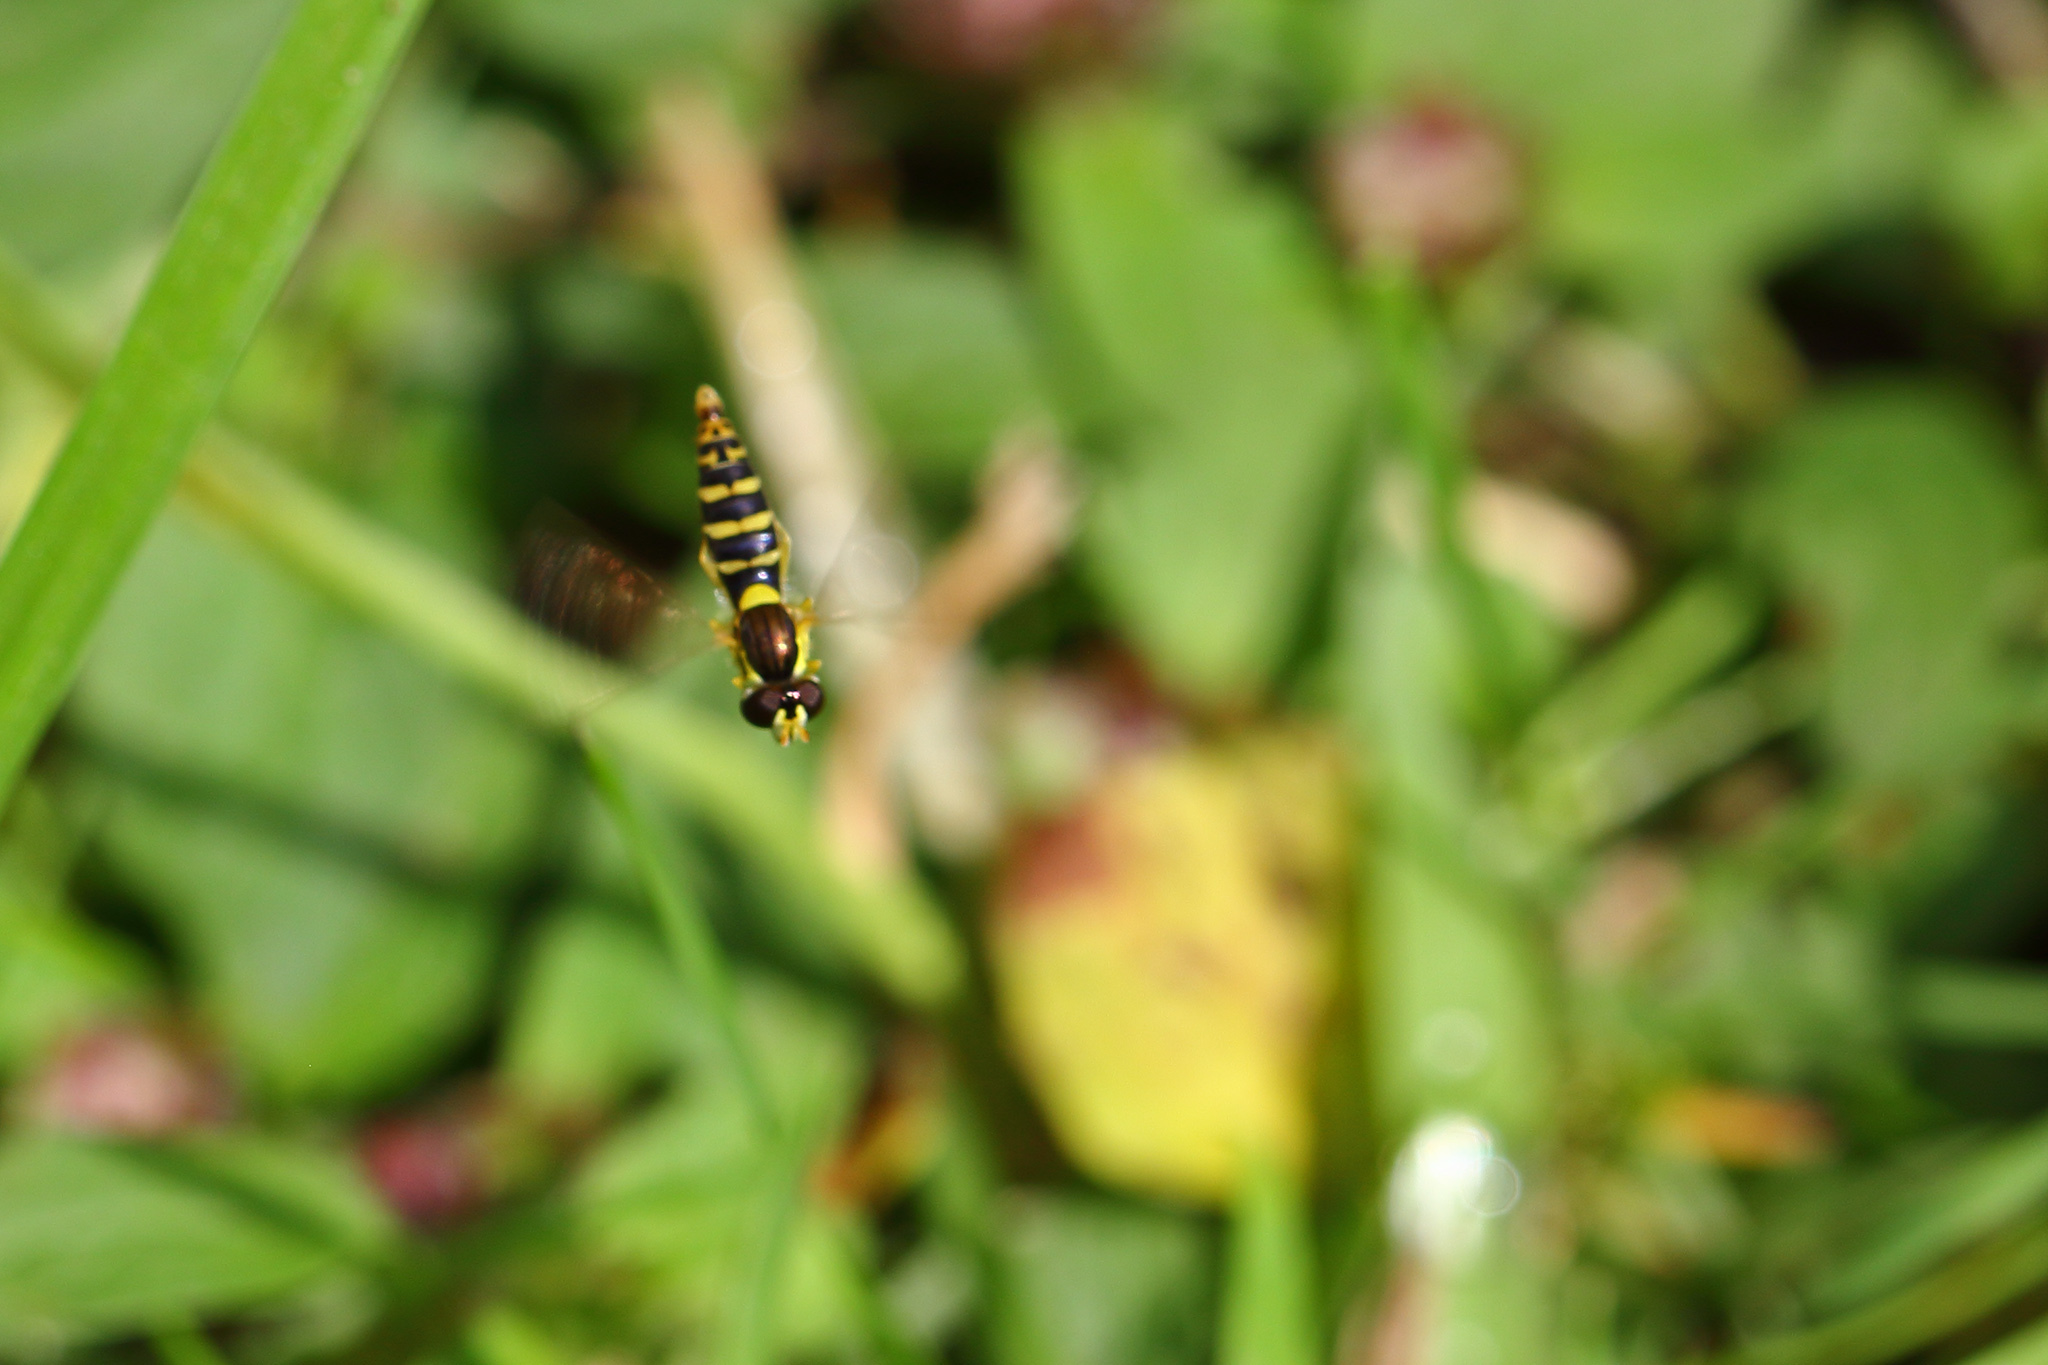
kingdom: Animalia
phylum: Arthropoda
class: Insecta
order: Diptera
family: Syrphidae
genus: Sphaerophoria
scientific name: Sphaerophoria
